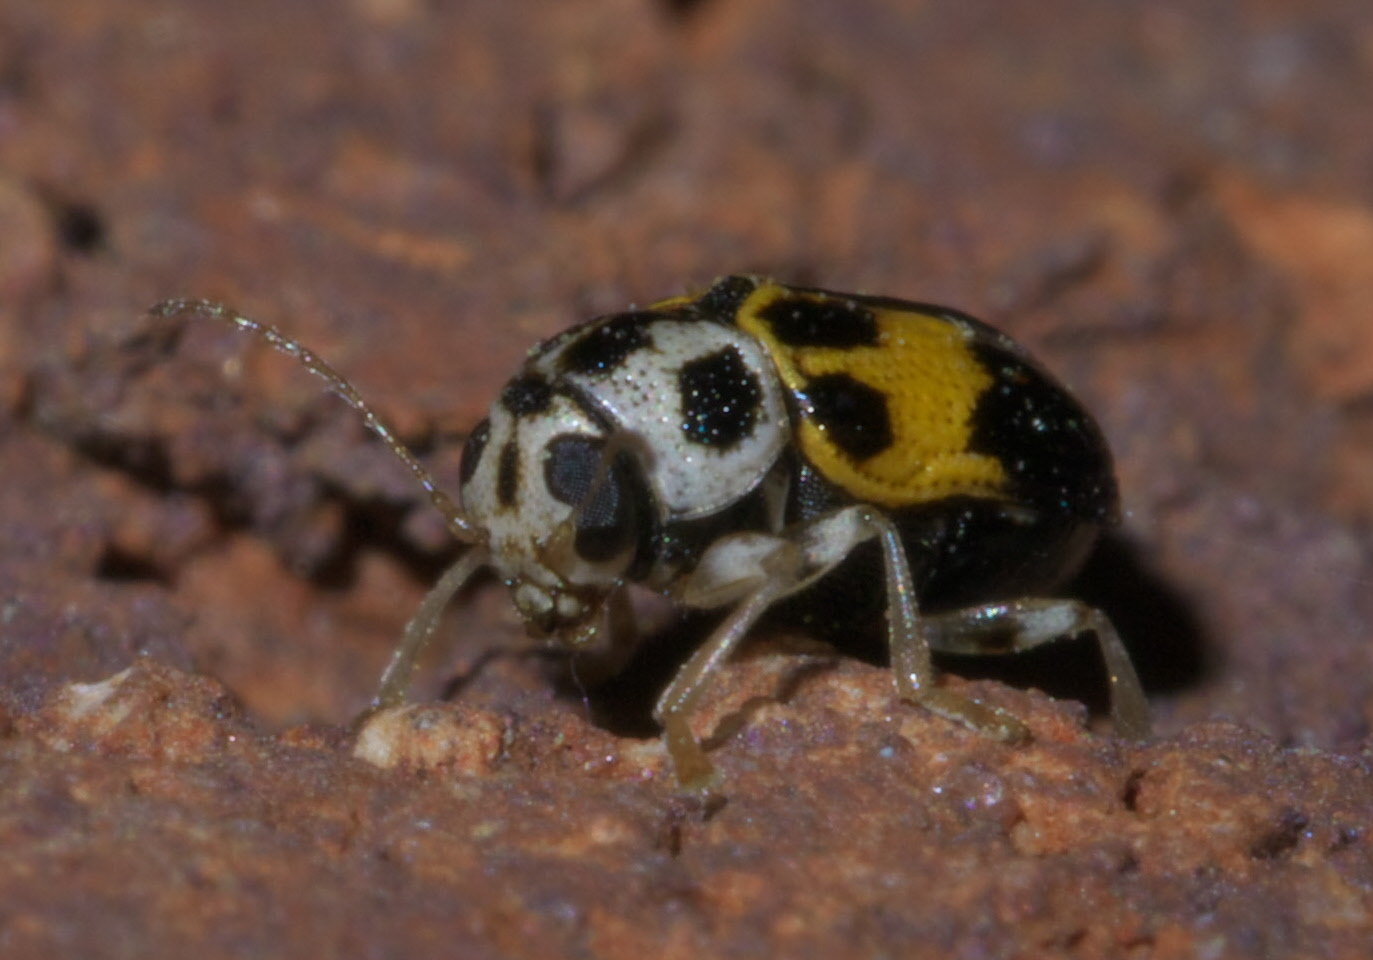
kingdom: Animalia
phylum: Arthropoda
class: Insecta
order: Coleoptera
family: Chrysomelidae
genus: Pachybrachis
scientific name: Pachybrachis tridens
